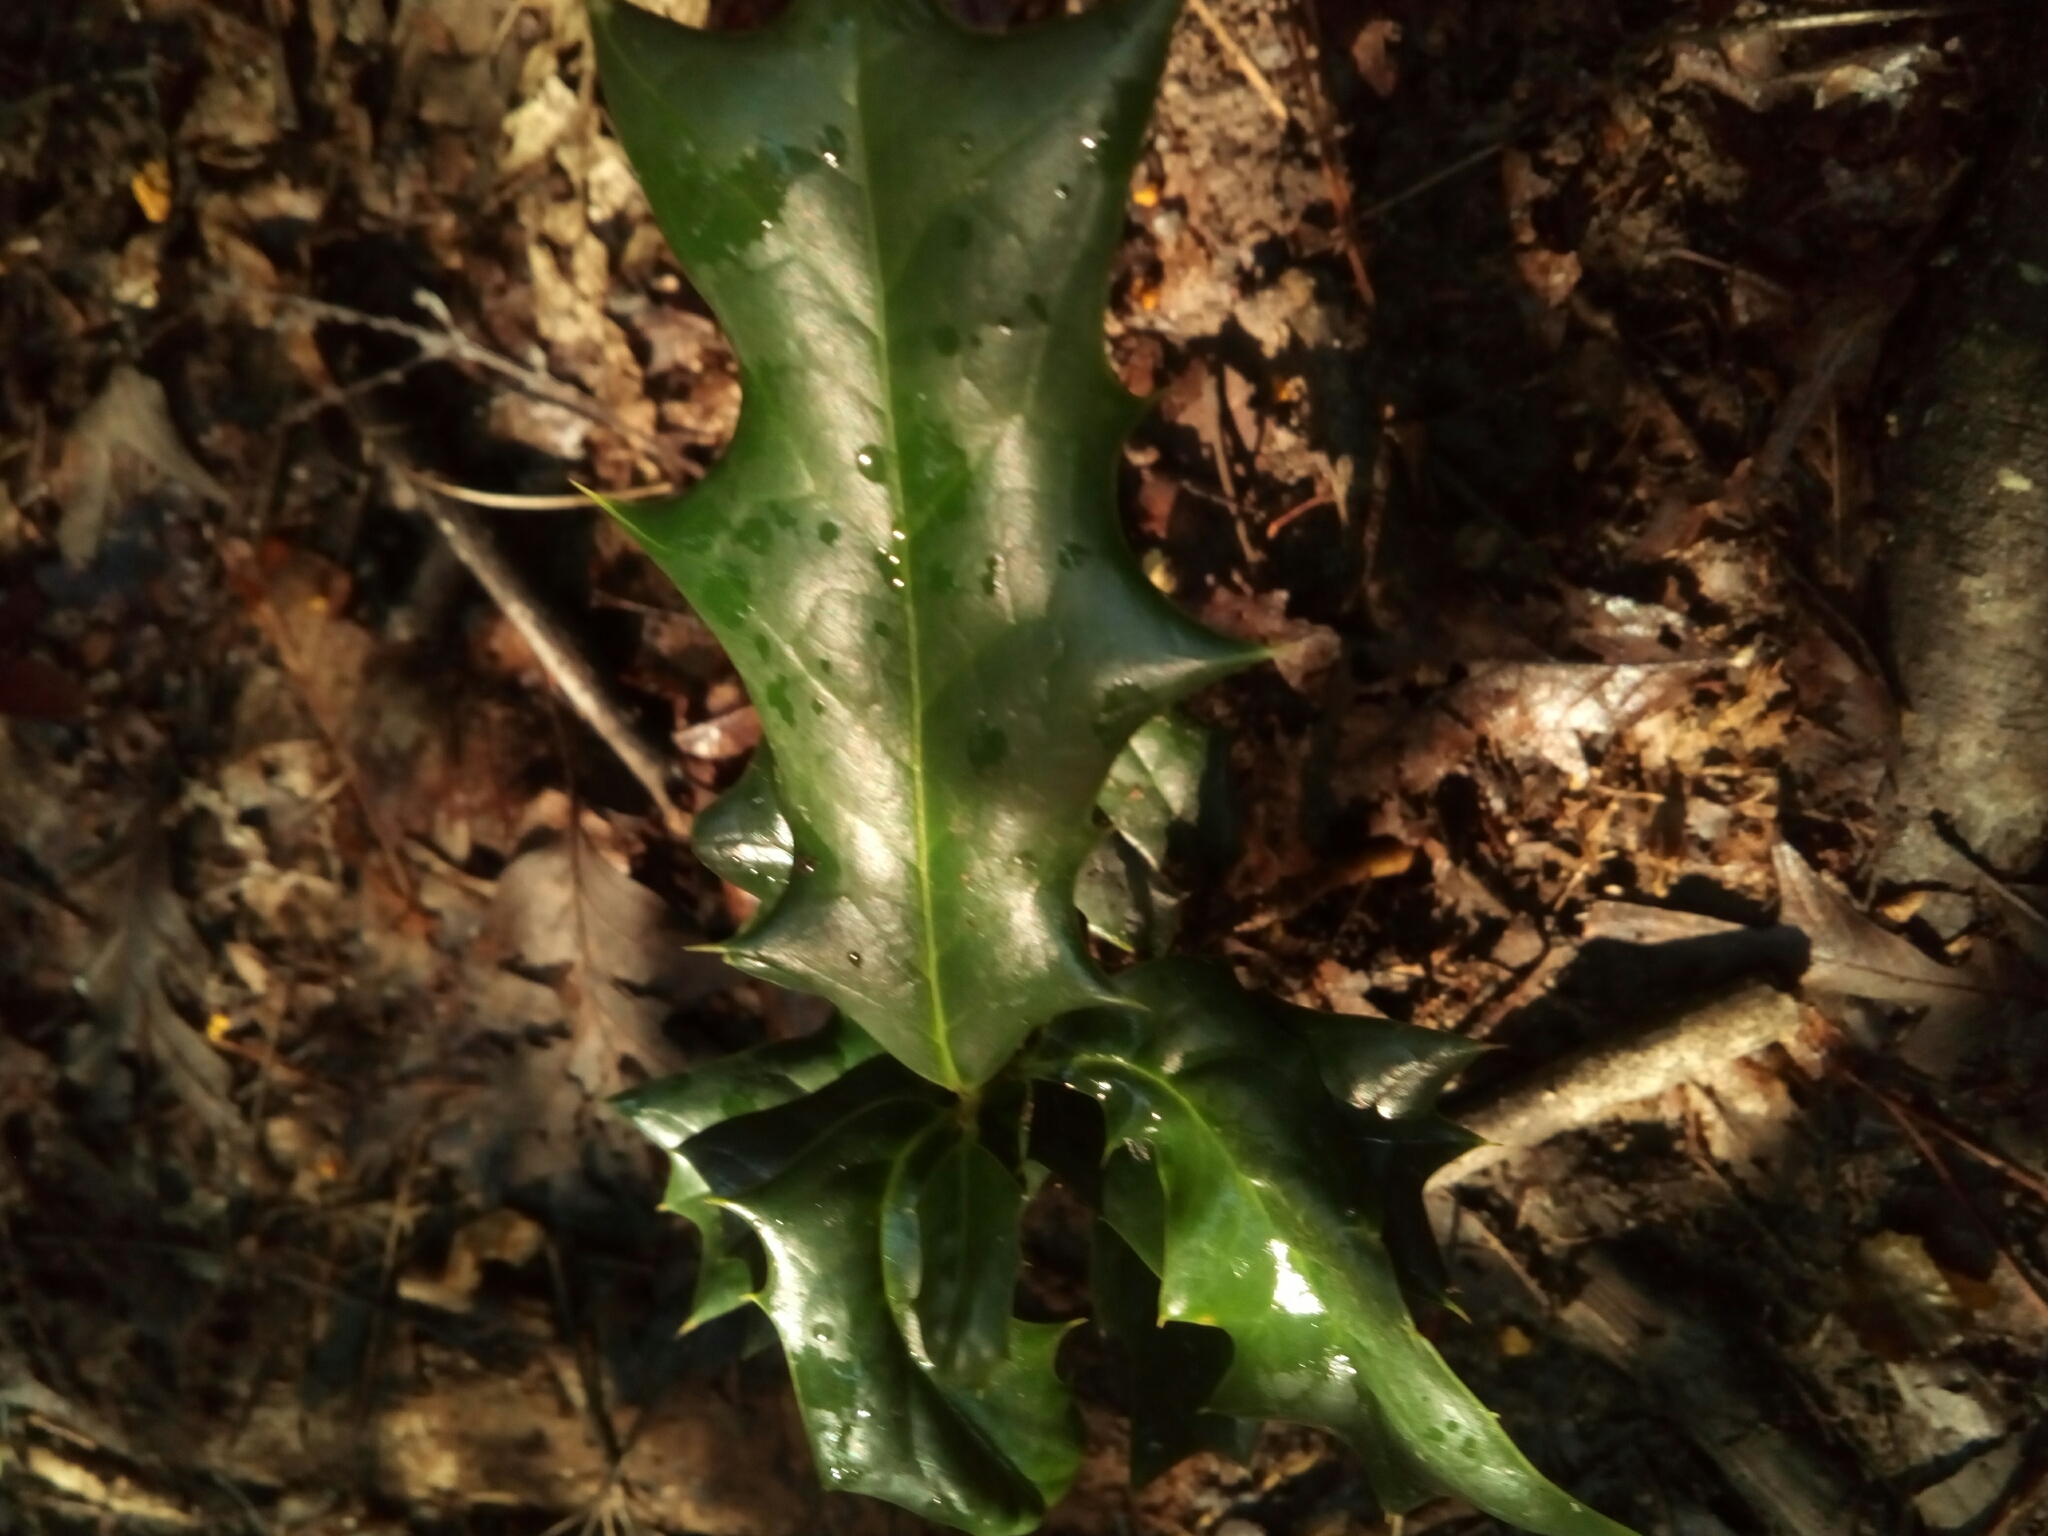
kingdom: Plantae
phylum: Tracheophyta
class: Magnoliopsida
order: Aquifoliales
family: Aquifoliaceae
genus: Ilex
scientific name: Ilex cornuta
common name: Chinese holly
